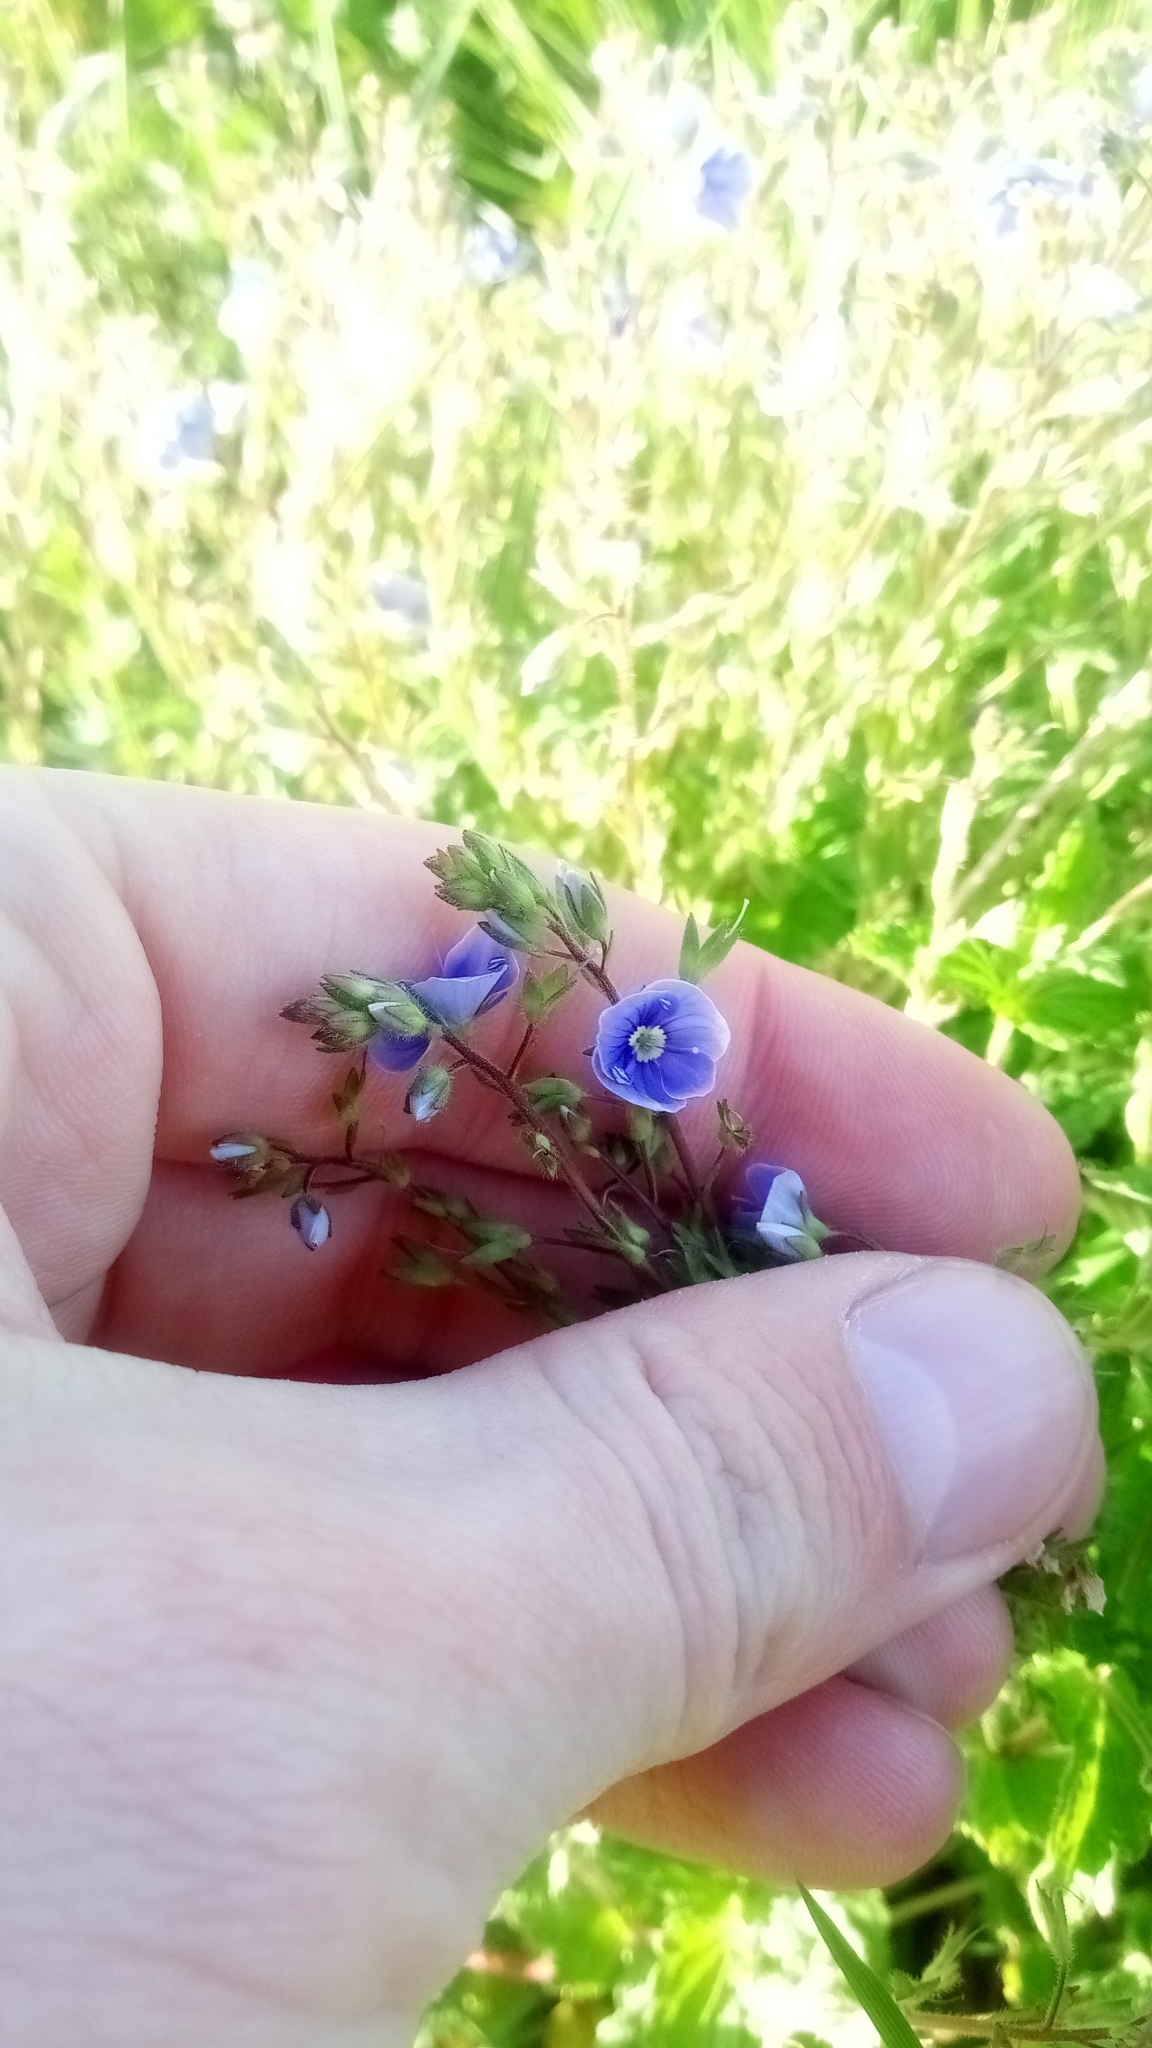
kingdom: Plantae
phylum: Tracheophyta
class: Magnoliopsida
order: Lamiales
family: Plantaginaceae
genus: Veronica
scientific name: Veronica chamaedrys
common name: Germander speedwell
